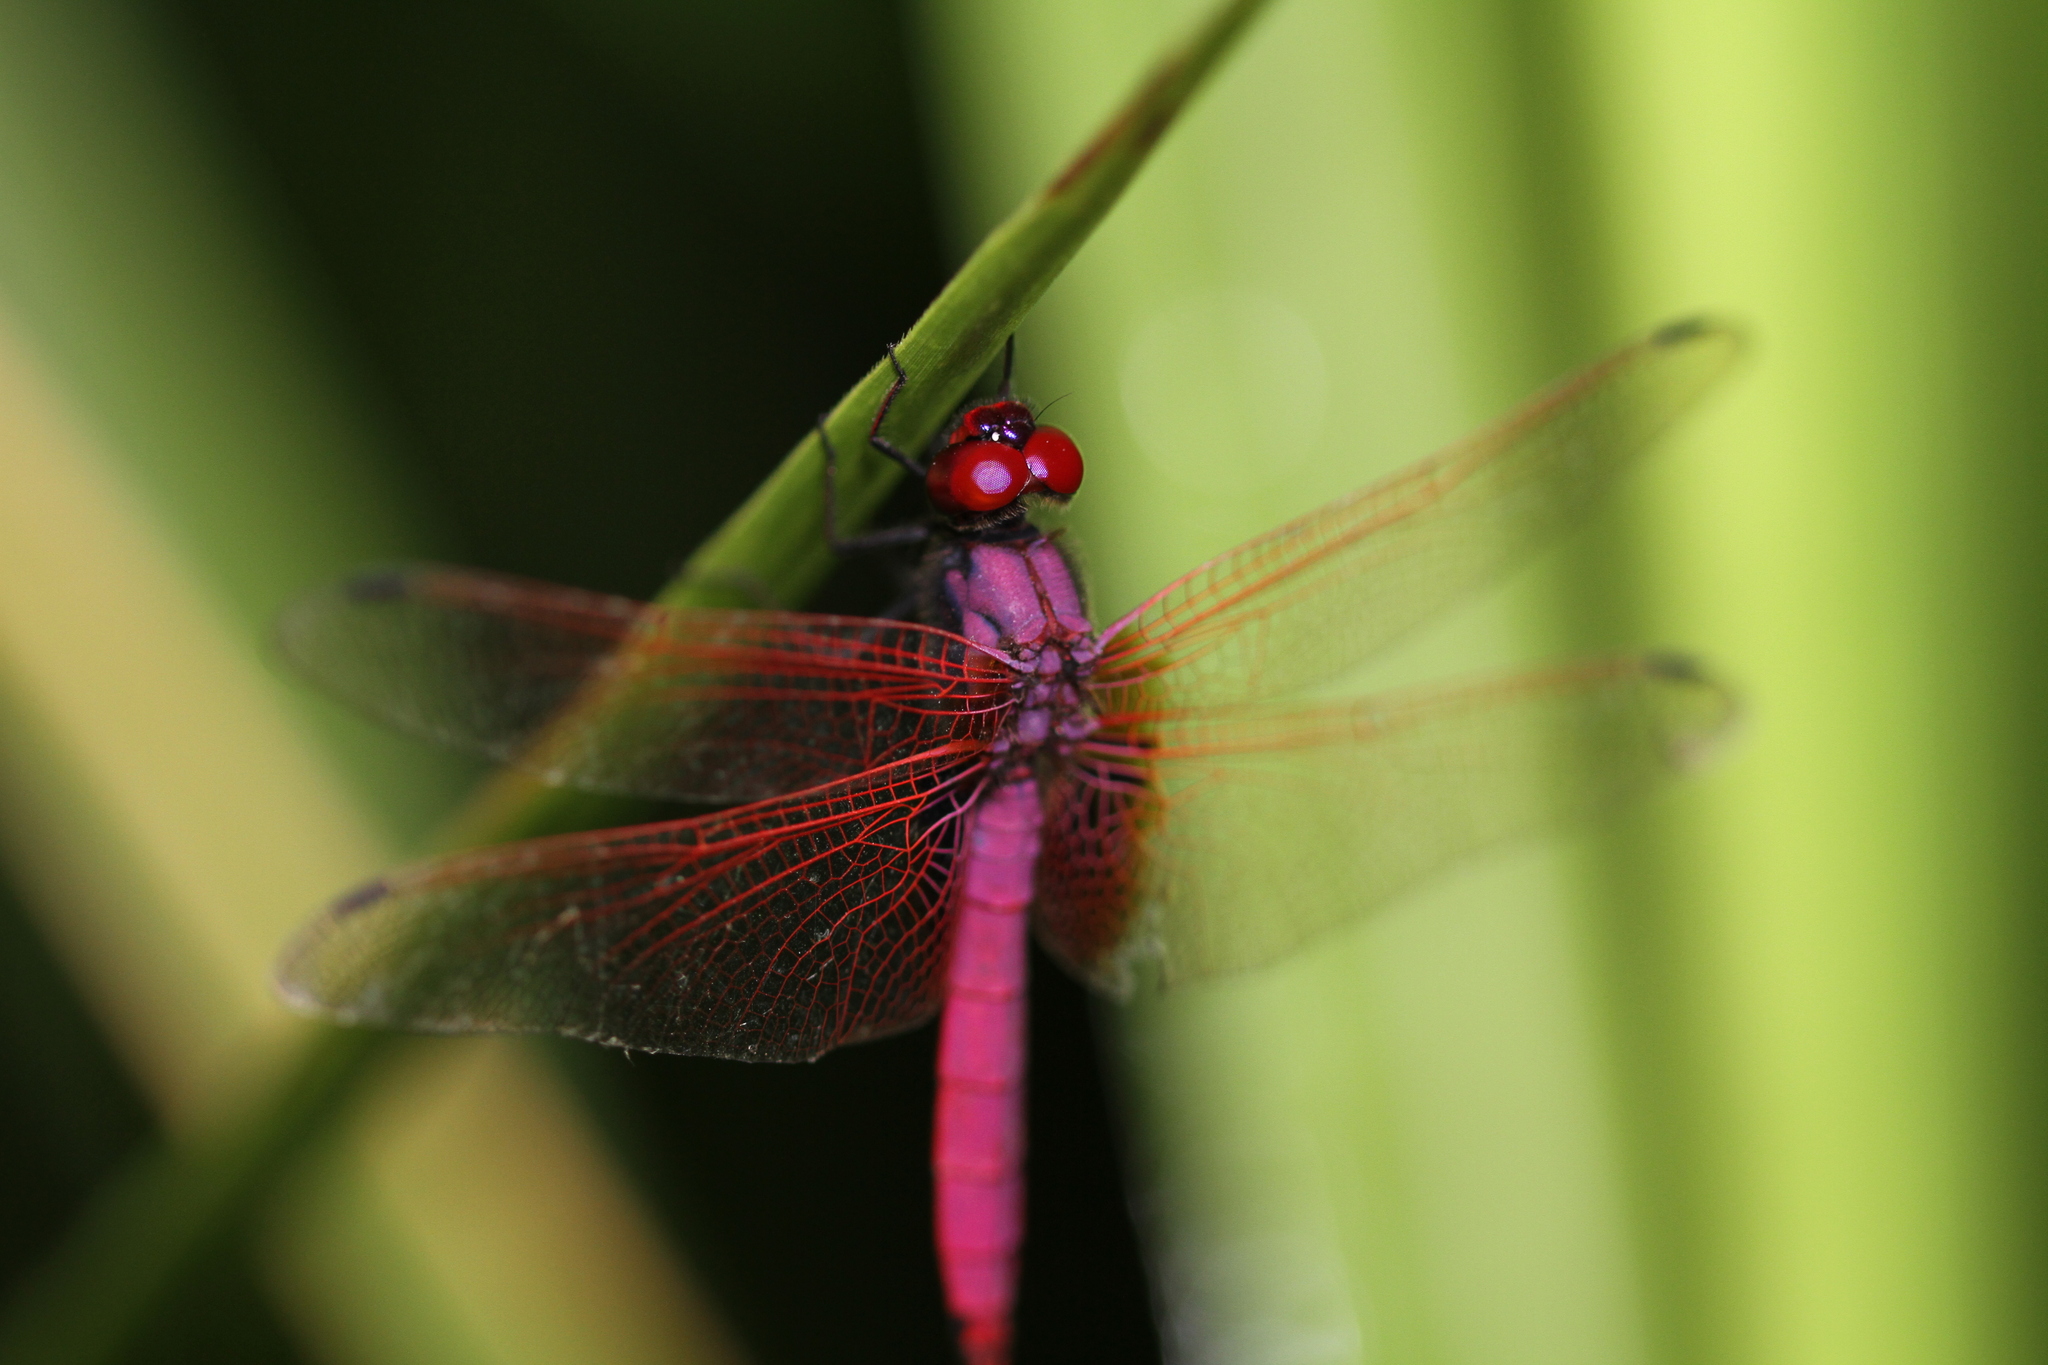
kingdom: Animalia
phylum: Arthropoda
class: Insecta
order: Odonata
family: Libellulidae
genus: Trithemis
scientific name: Trithemis aurora
